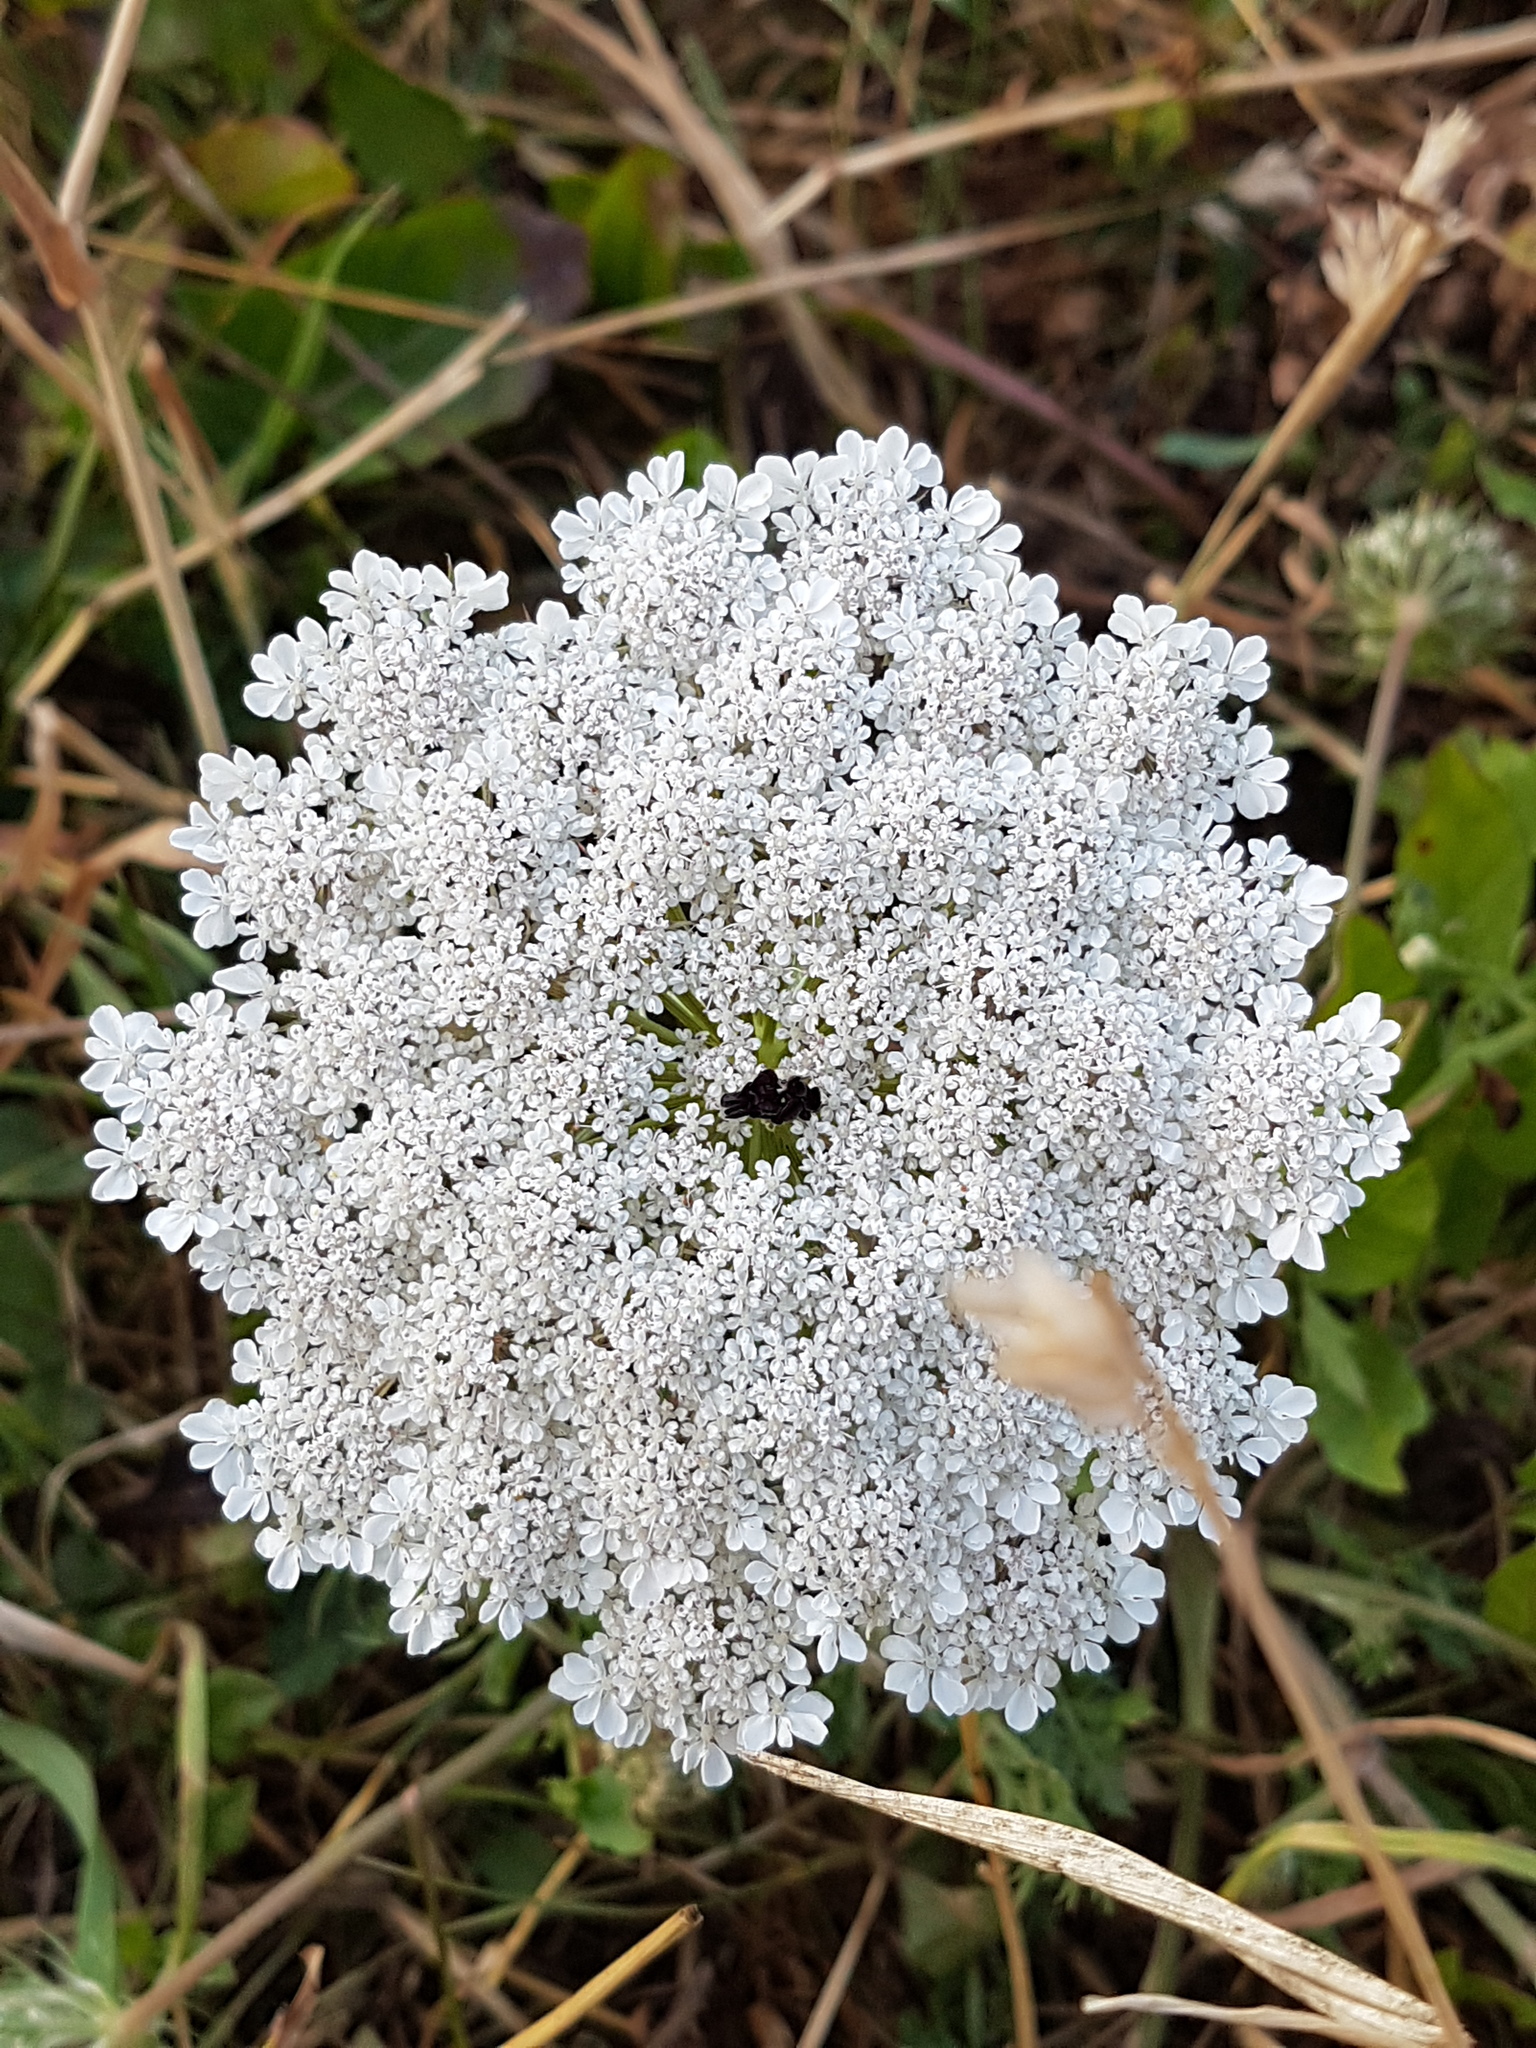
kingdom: Plantae
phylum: Tracheophyta
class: Magnoliopsida
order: Apiales
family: Apiaceae
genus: Daucus
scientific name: Daucus carota
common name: Wild carrot
